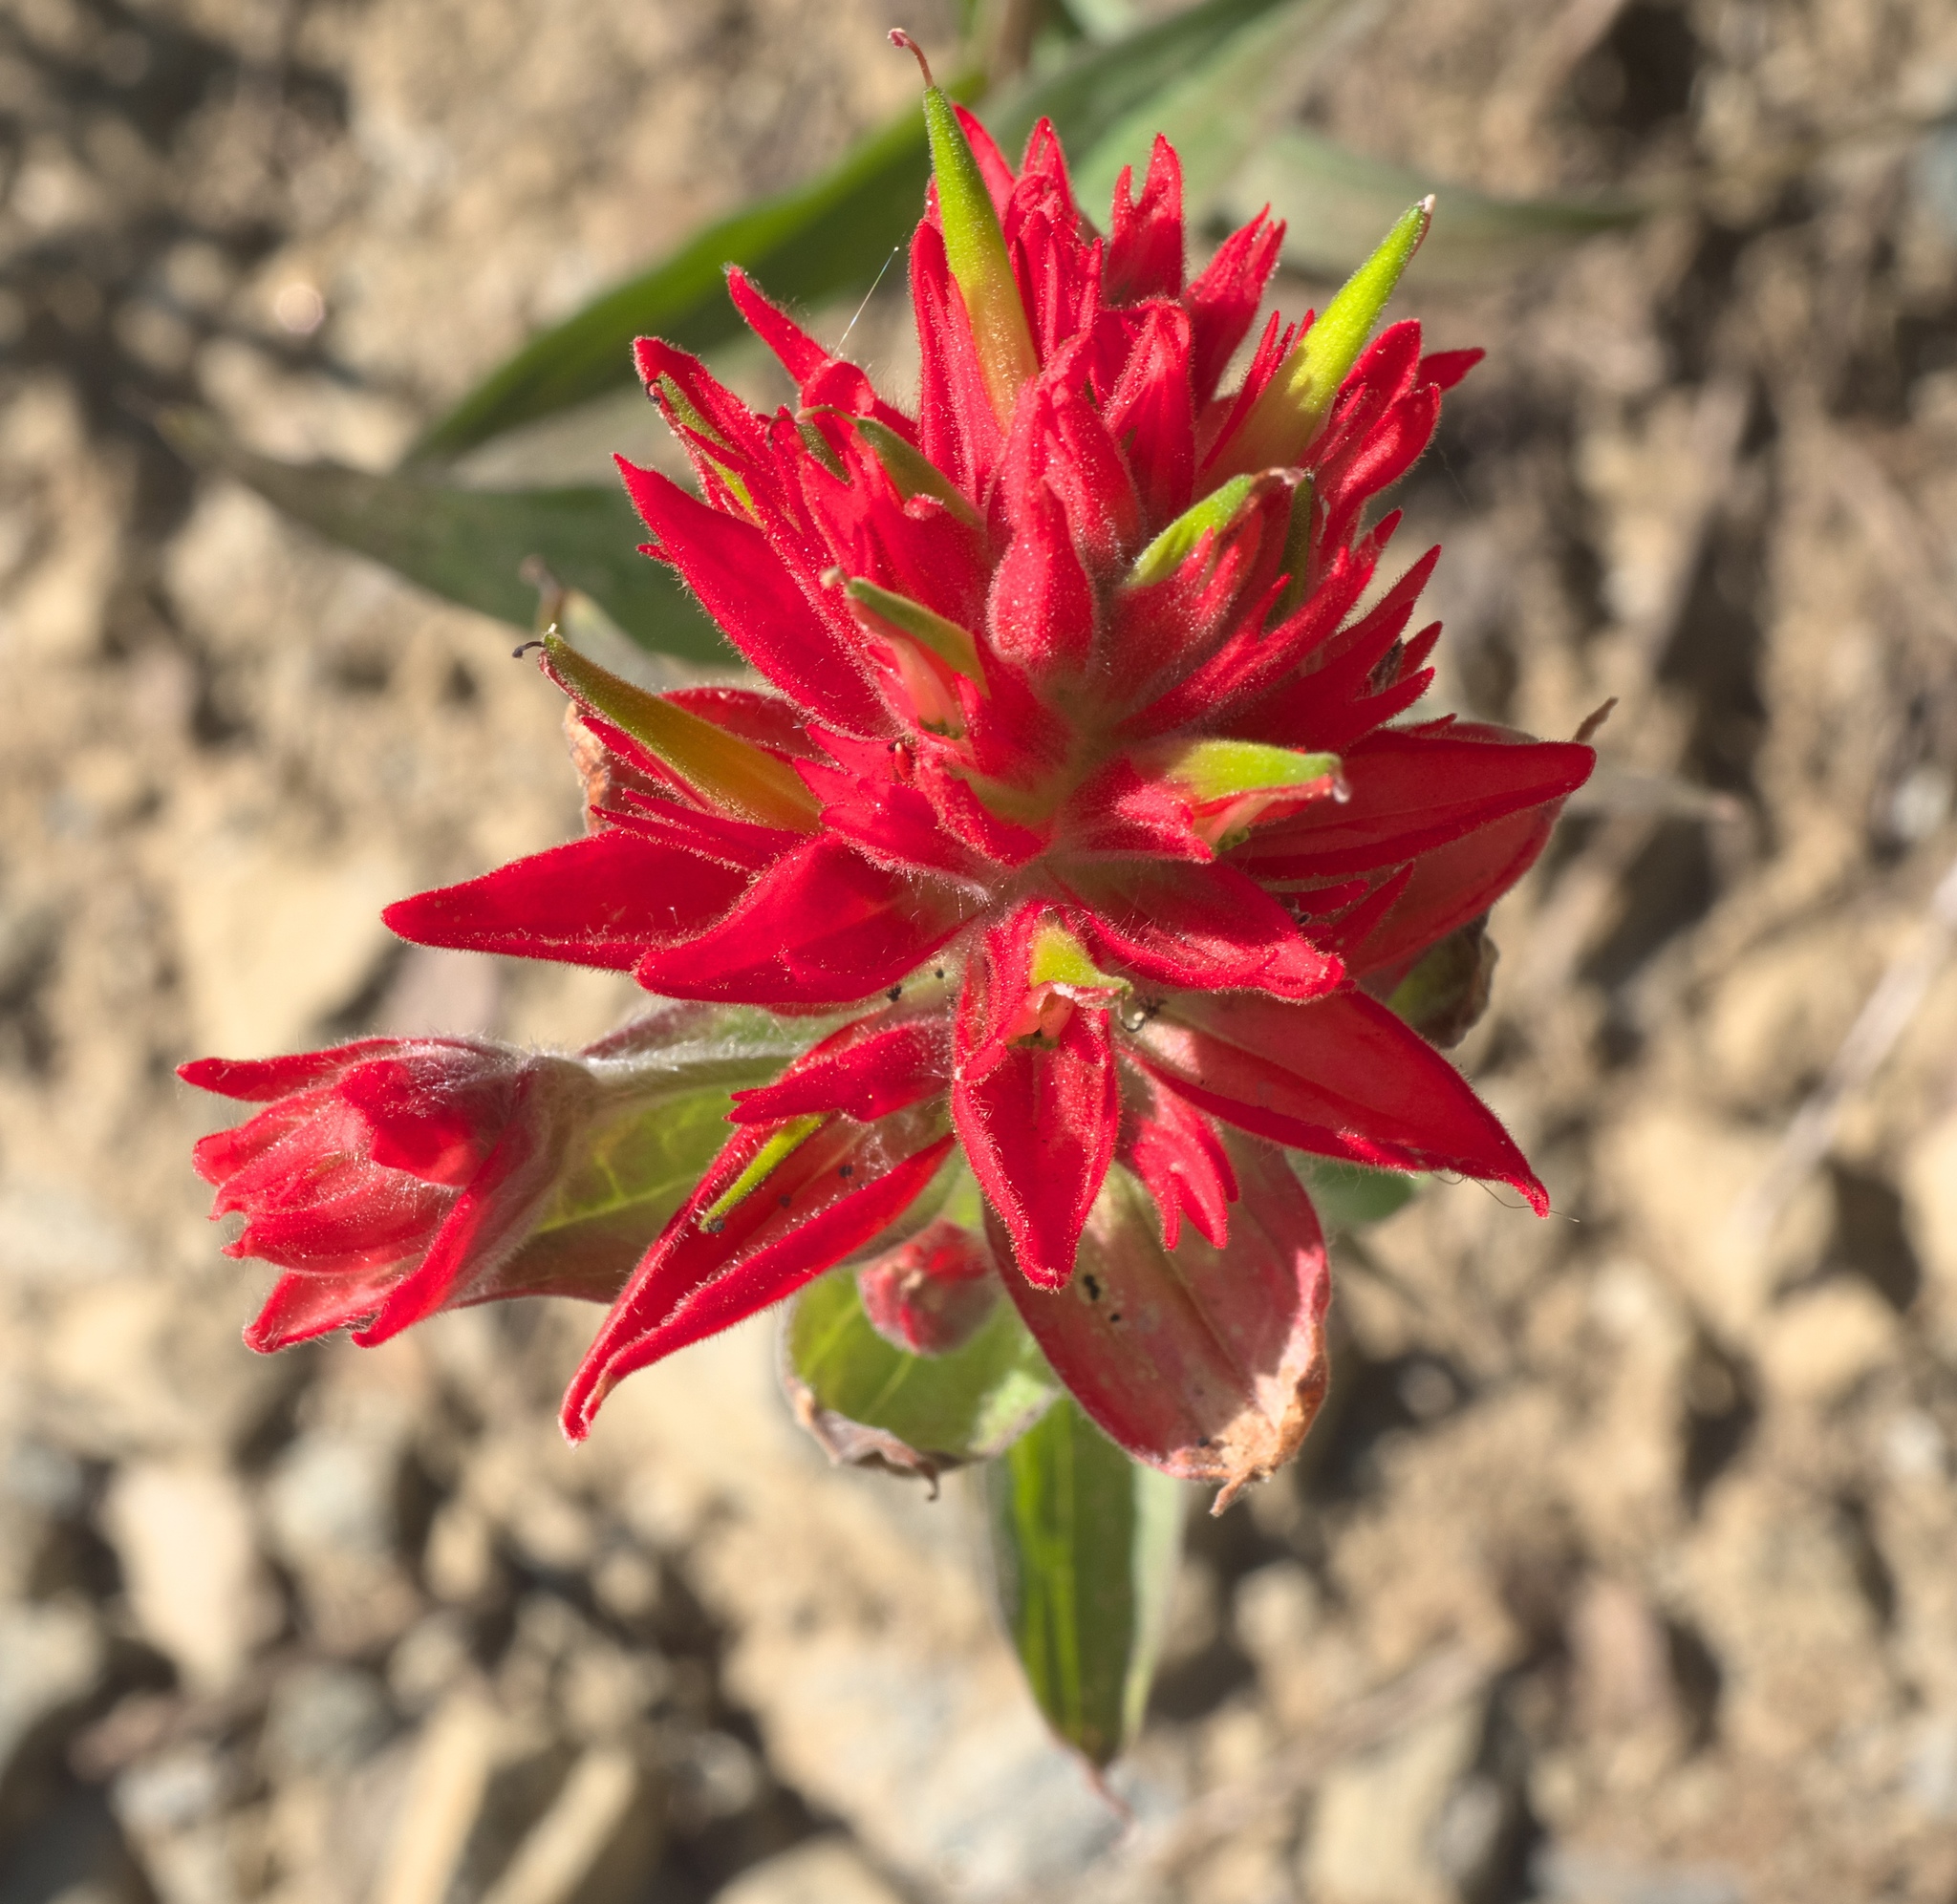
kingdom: Plantae
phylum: Tracheophyta
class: Magnoliopsida
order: Lamiales
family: Orobanchaceae
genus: Castilleja
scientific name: Castilleja miniata
